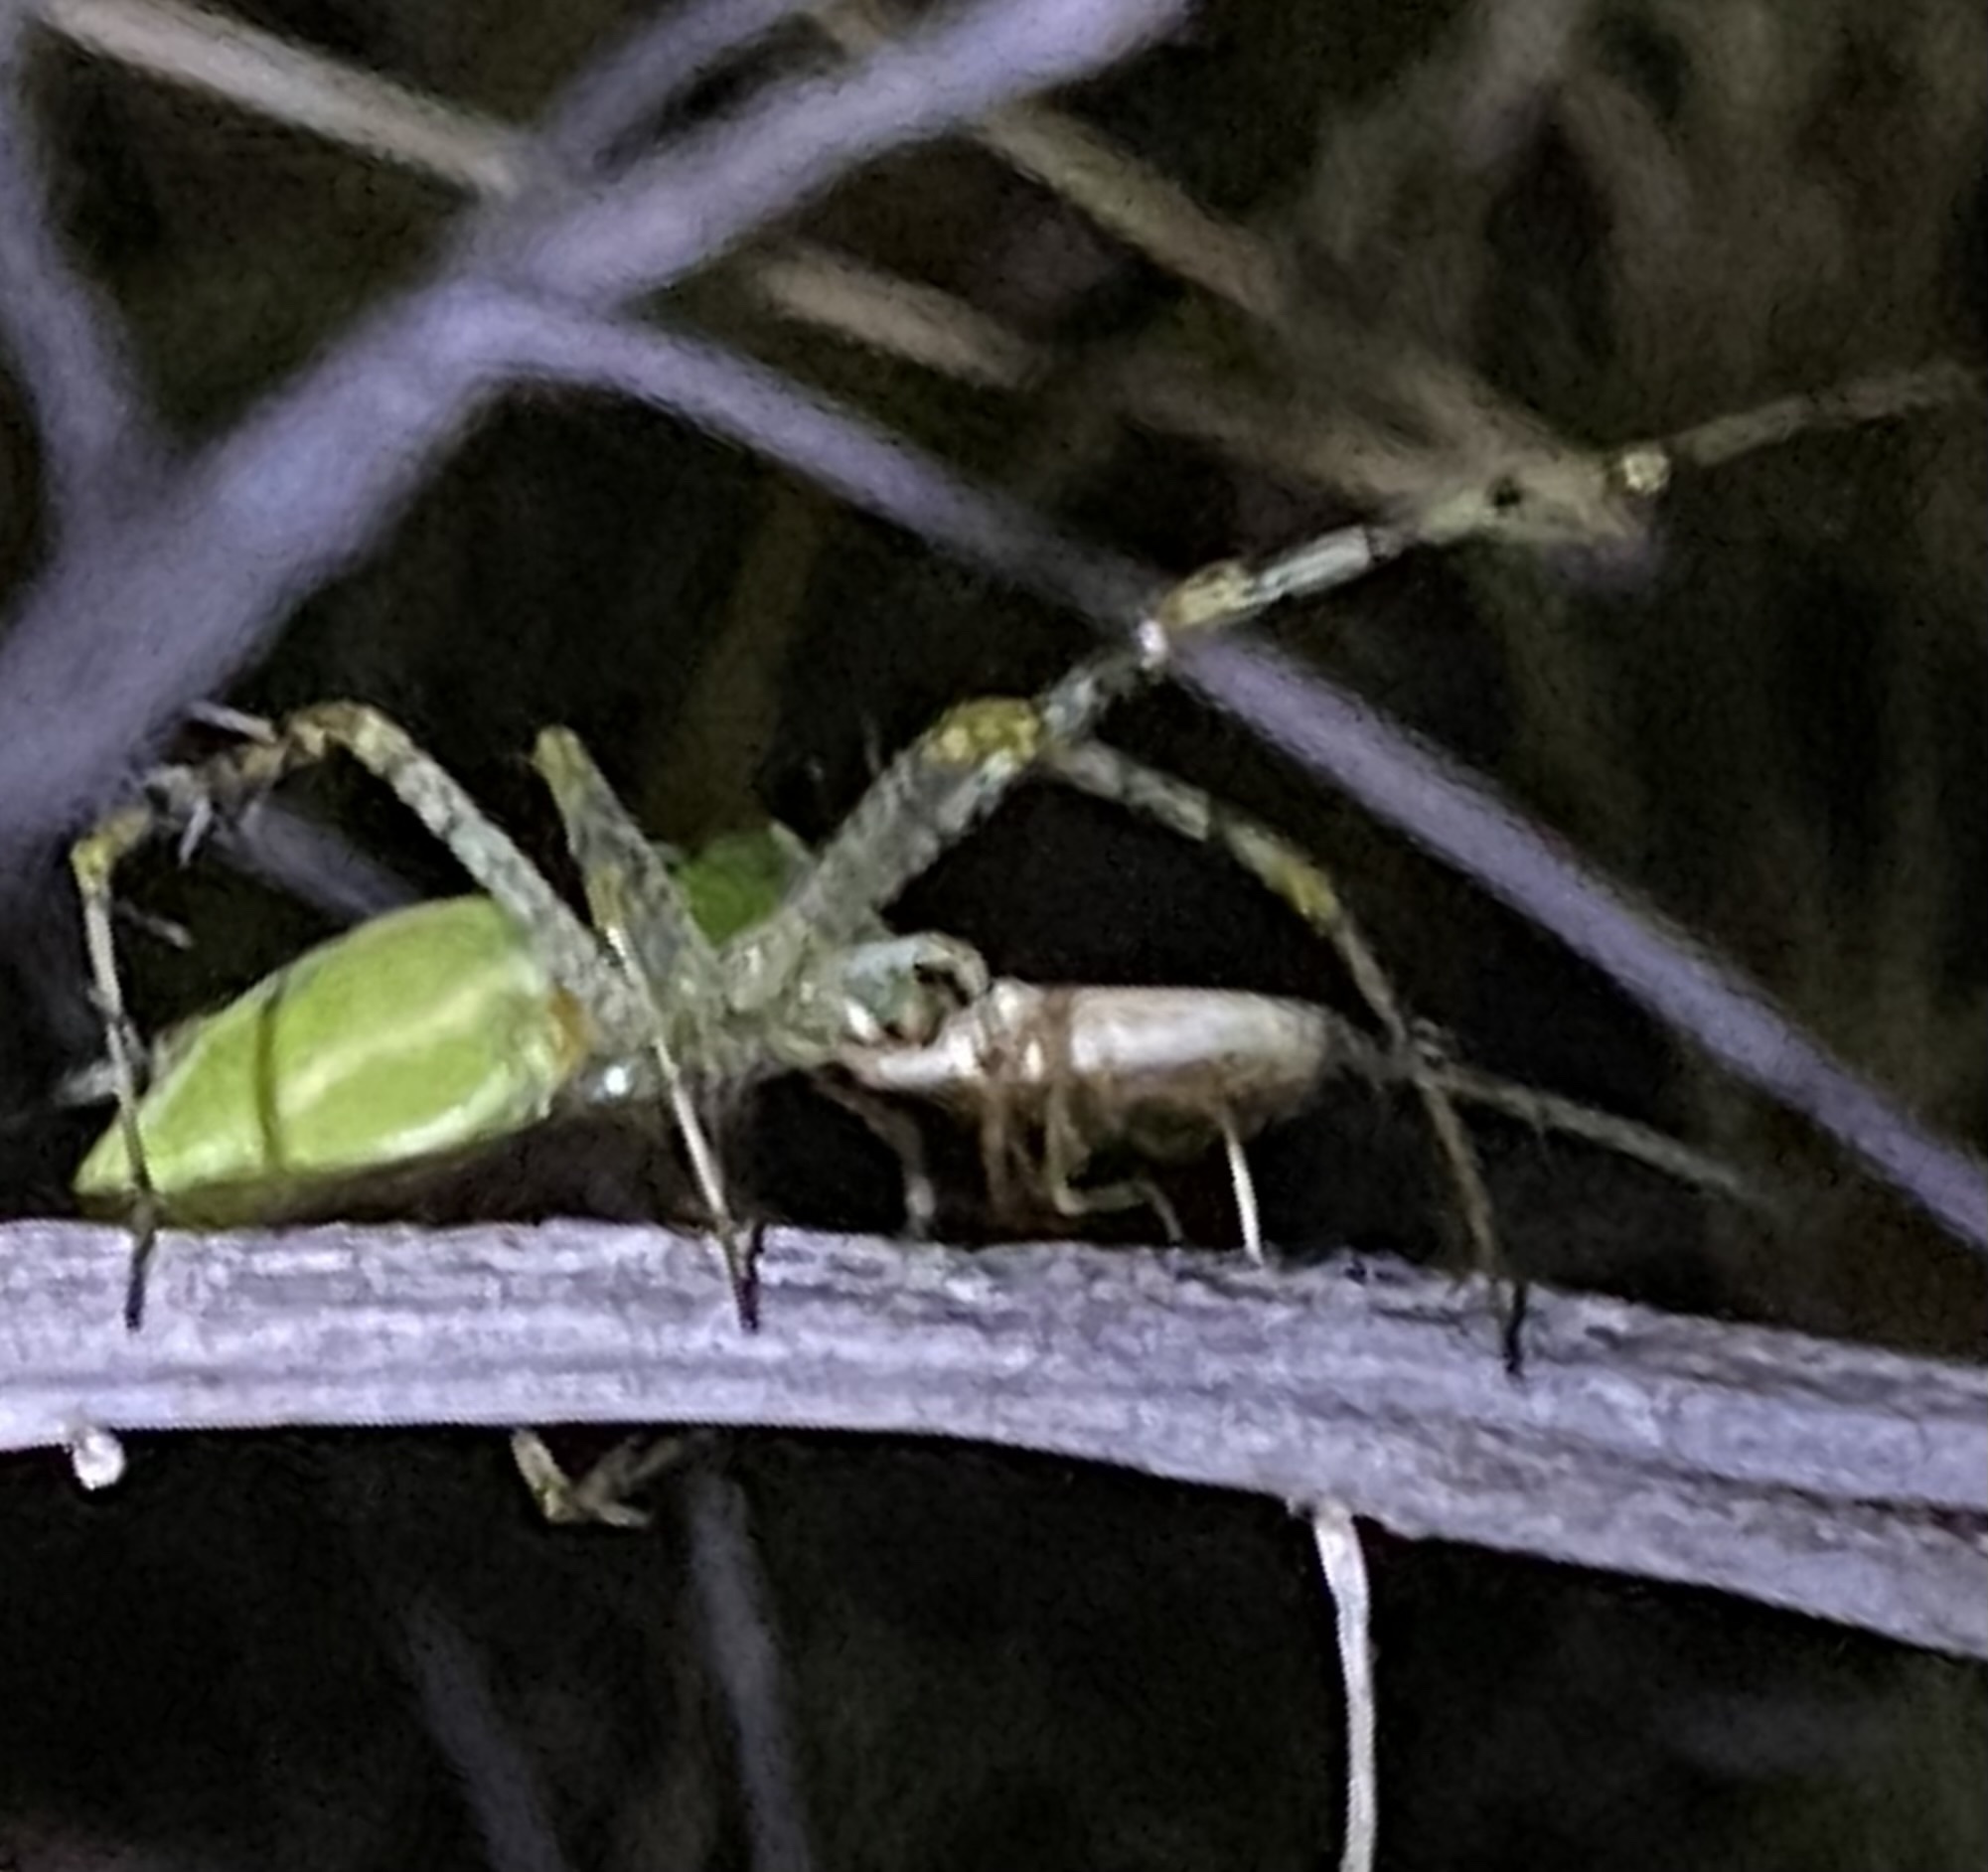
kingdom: Animalia
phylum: Arthropoda
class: Arachnida
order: Araneae
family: Oxyopidae
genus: Peucetia
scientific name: Peucetia viridans
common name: Lynx spiders
